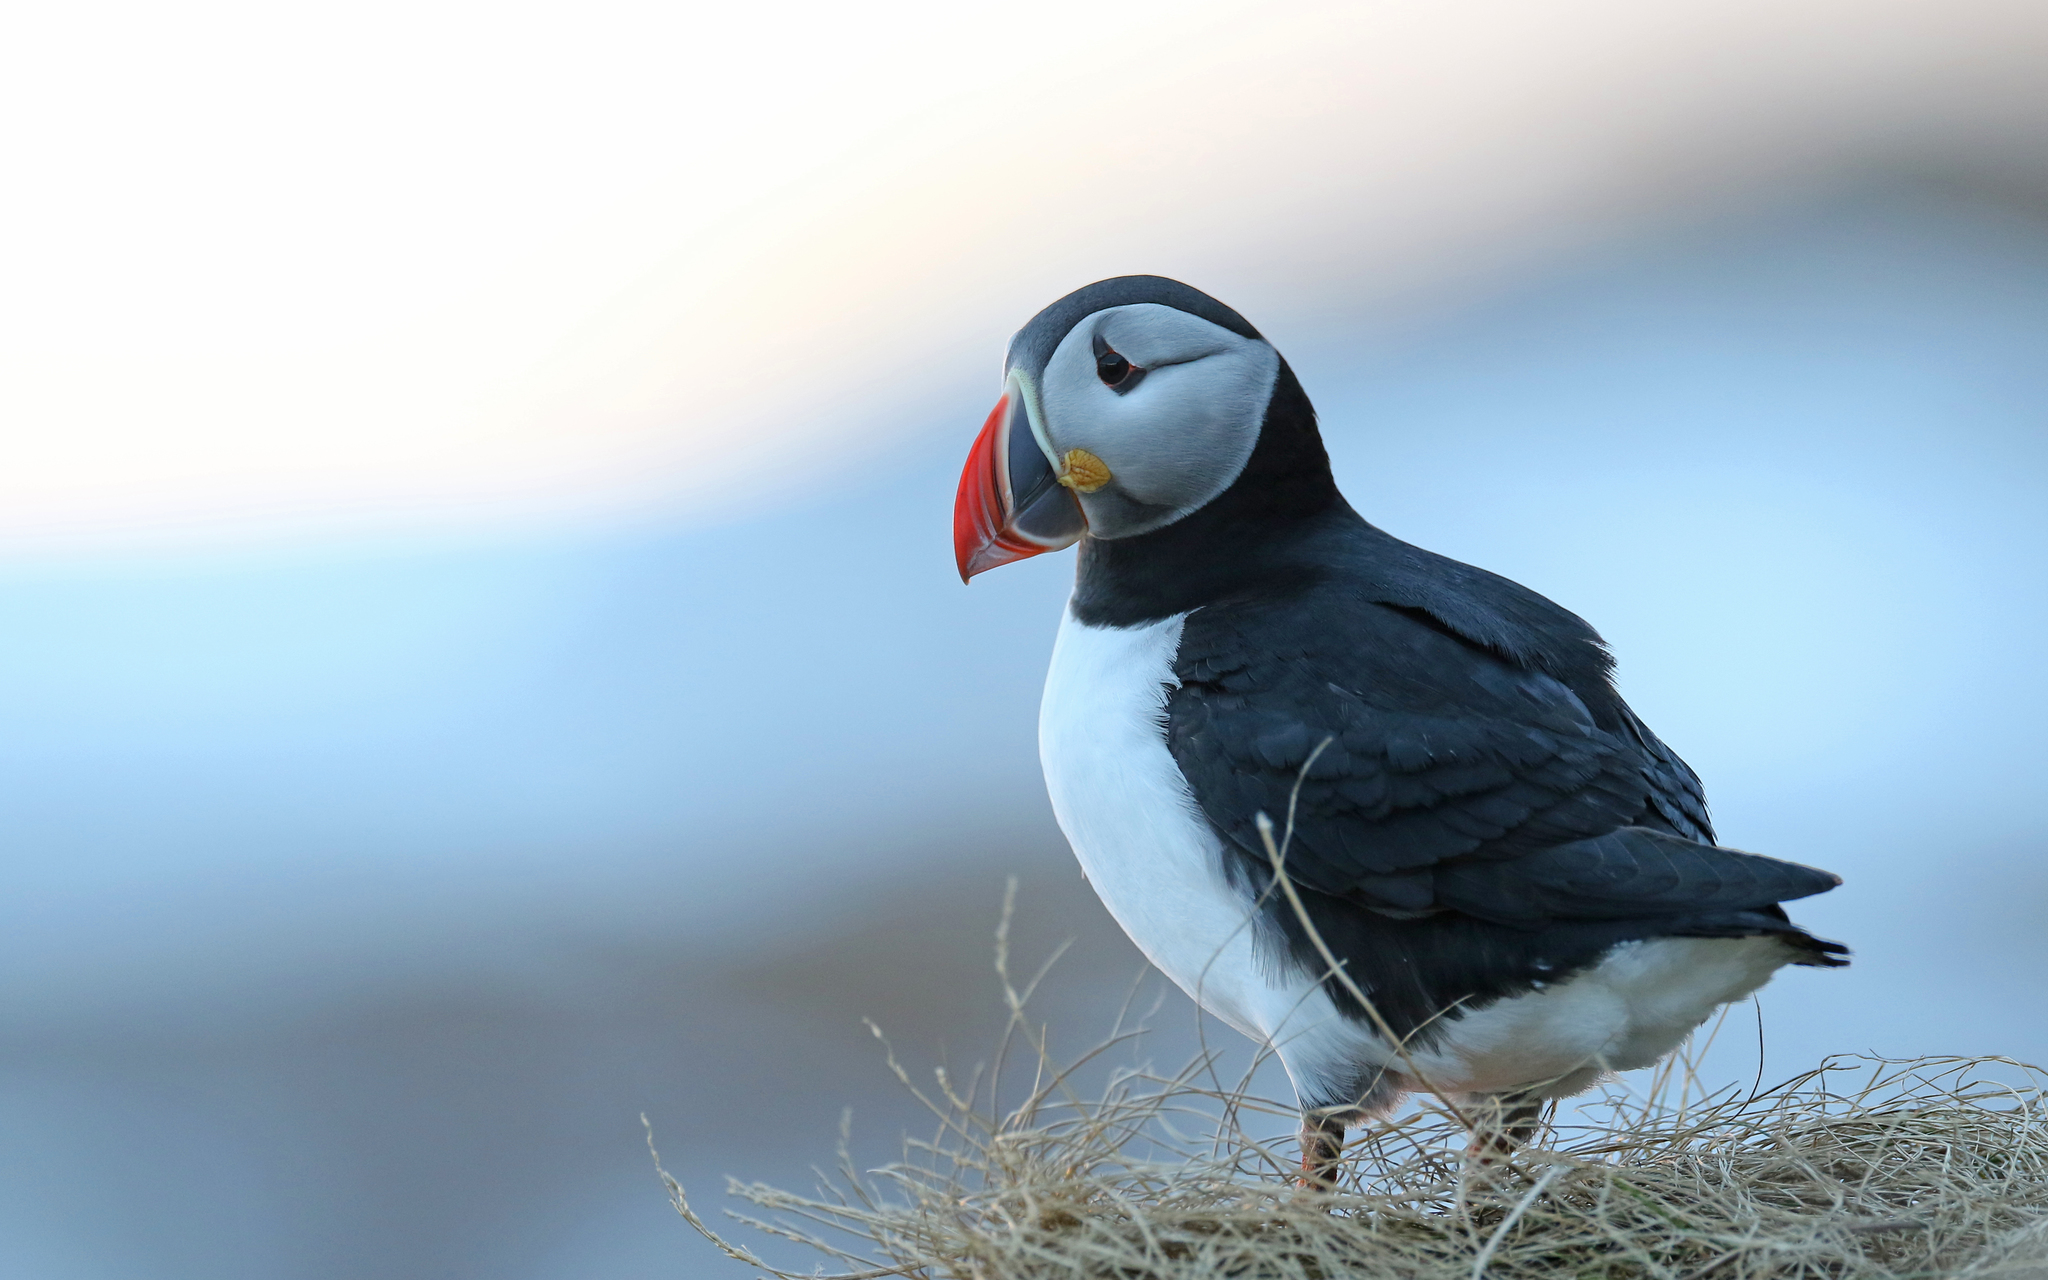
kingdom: Animalia
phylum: Chordata
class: Aves
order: Charadriiformes
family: Alcidae
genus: Fratercula
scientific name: Fratercula arctica
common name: Atlantic puffin
